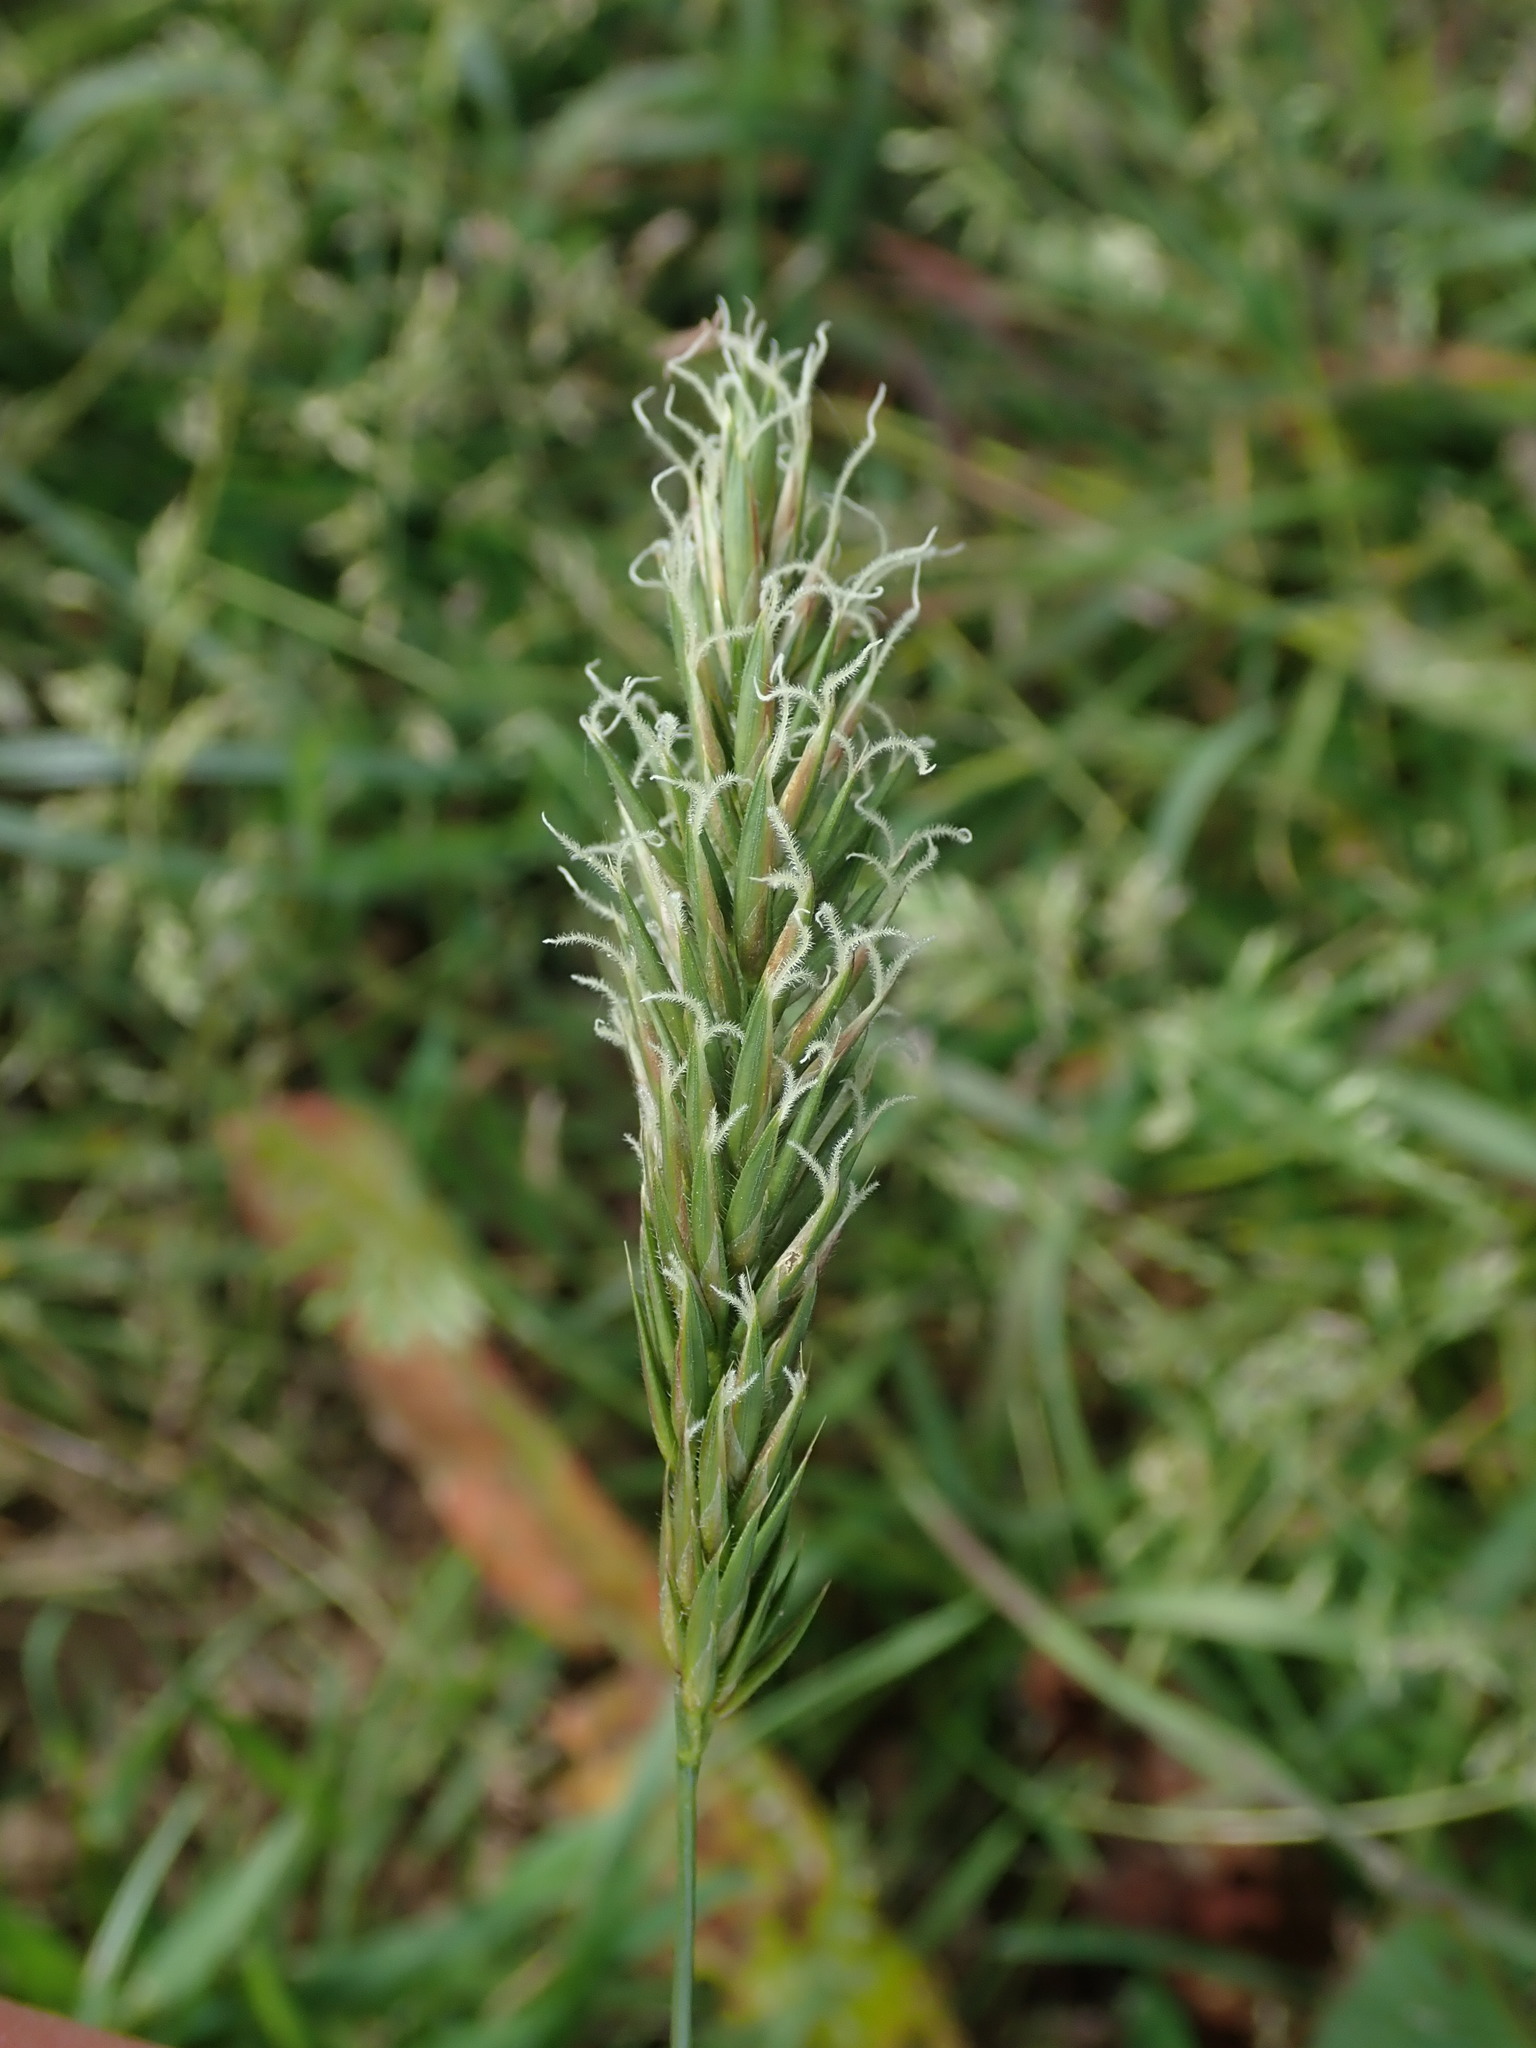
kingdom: Plantae
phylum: Tracheophyta
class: Liliopsida
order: Poales
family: Poaceae
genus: Anthoxanthum
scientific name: Anthoxanthum odoratum
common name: Sweet vernalgrass
